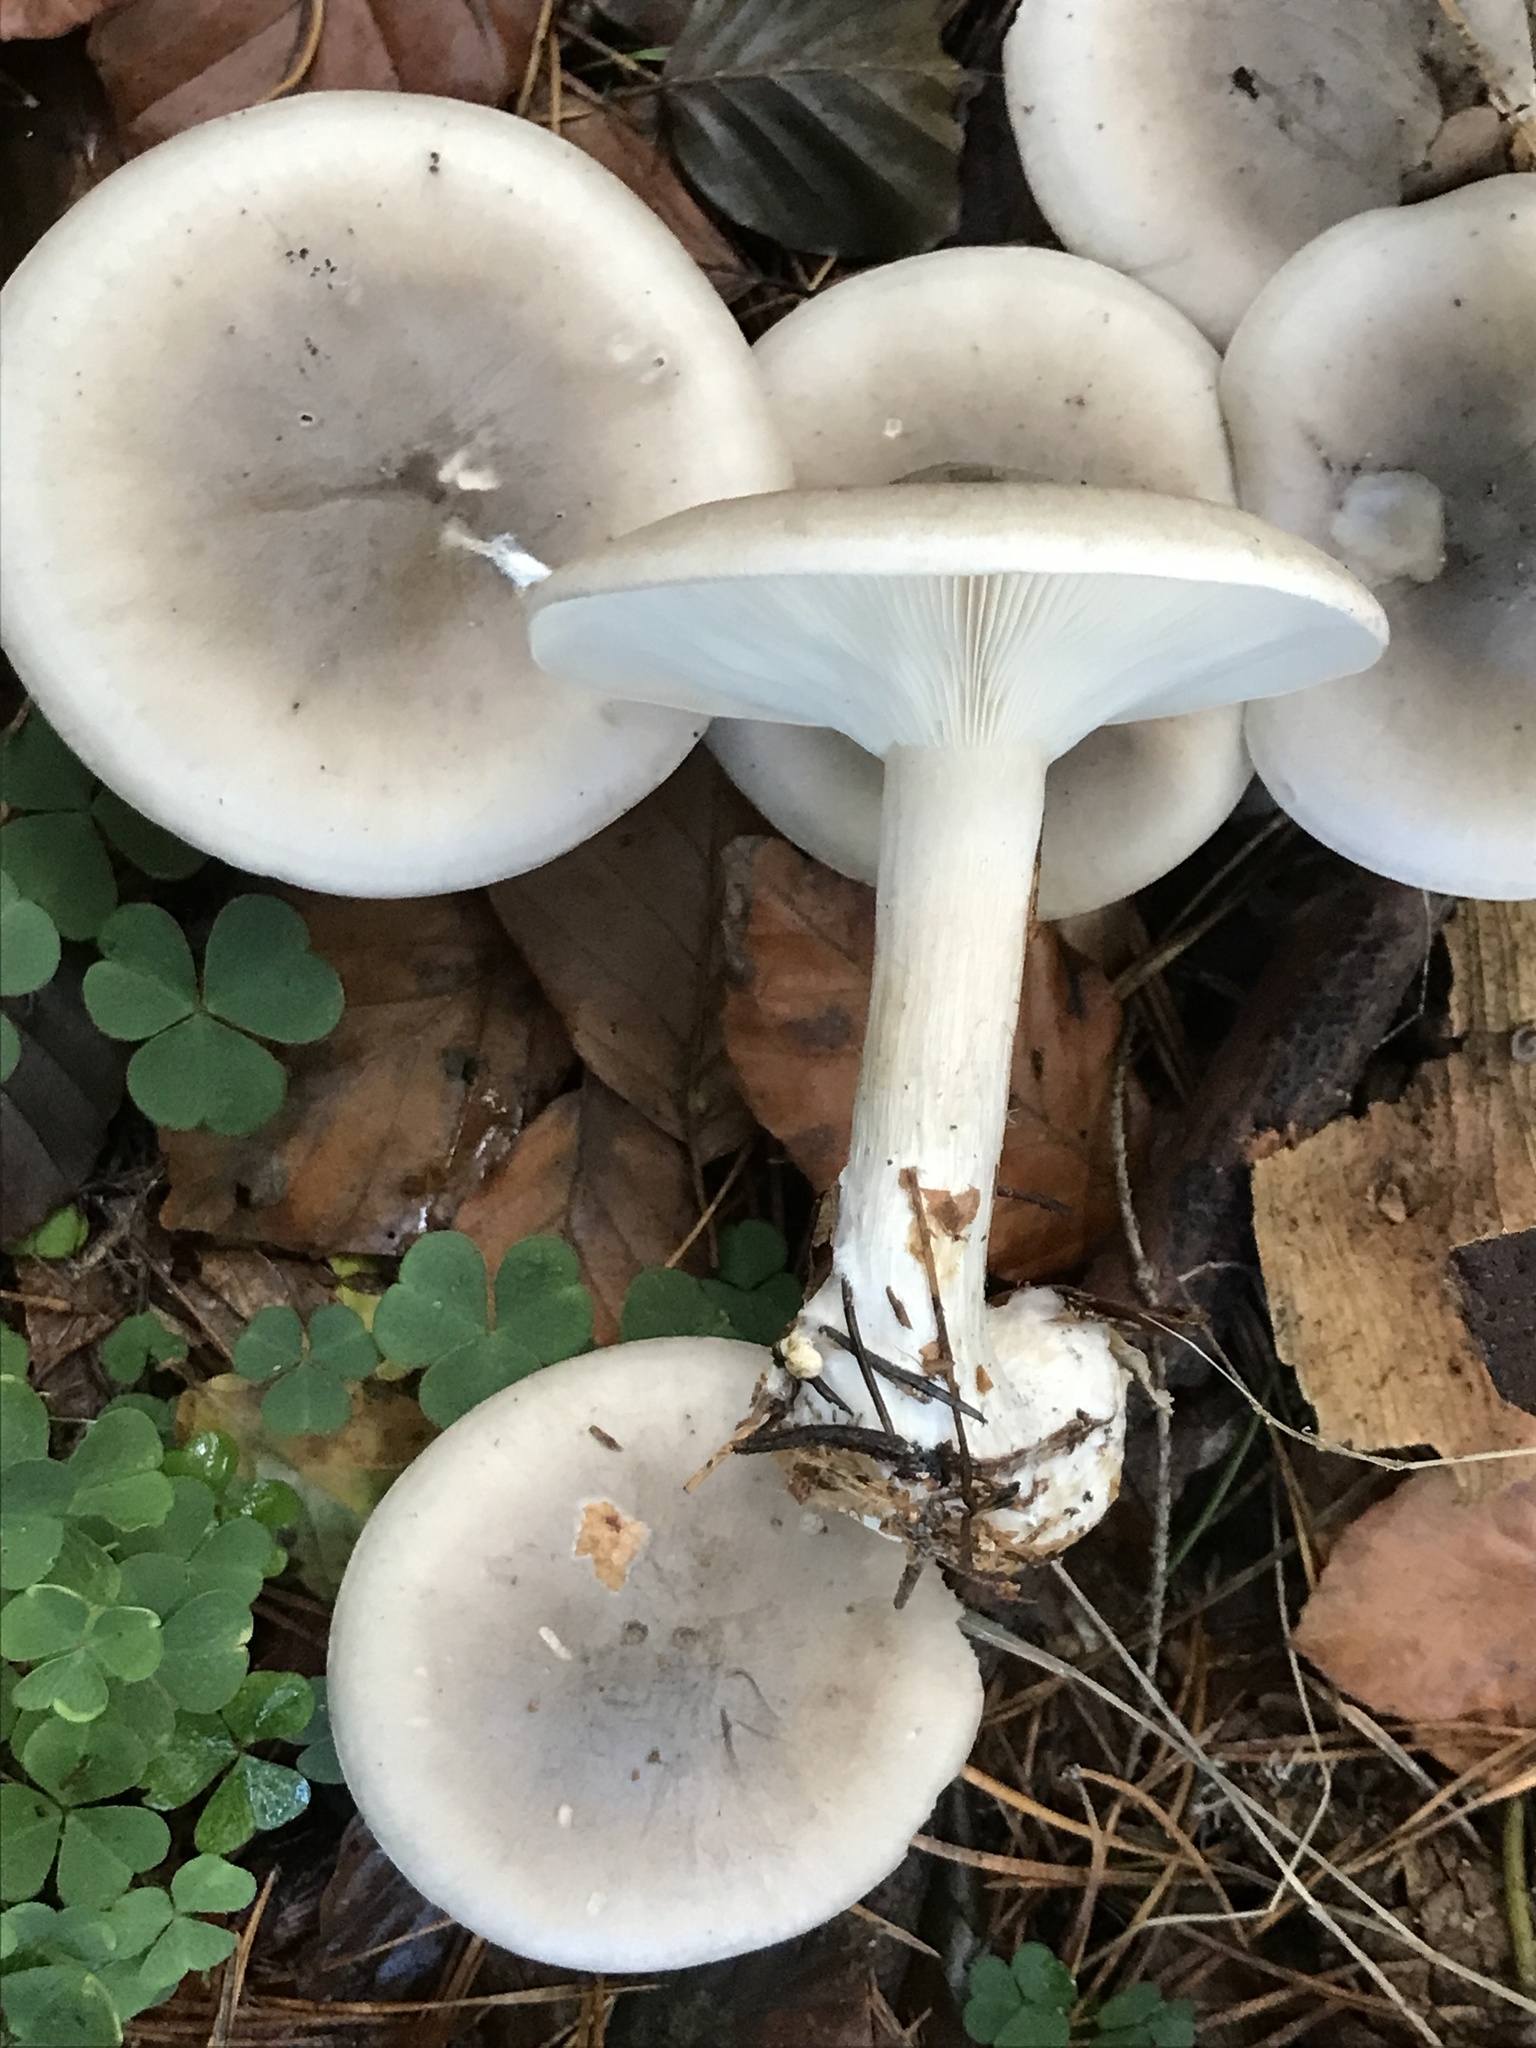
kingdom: Fungi
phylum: Basidiomycota
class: Agaricomycetes
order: Agaricales
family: Tricholomataceae
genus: Clitocybe
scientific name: Clitocybe nebularis
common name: Clouded agaric
